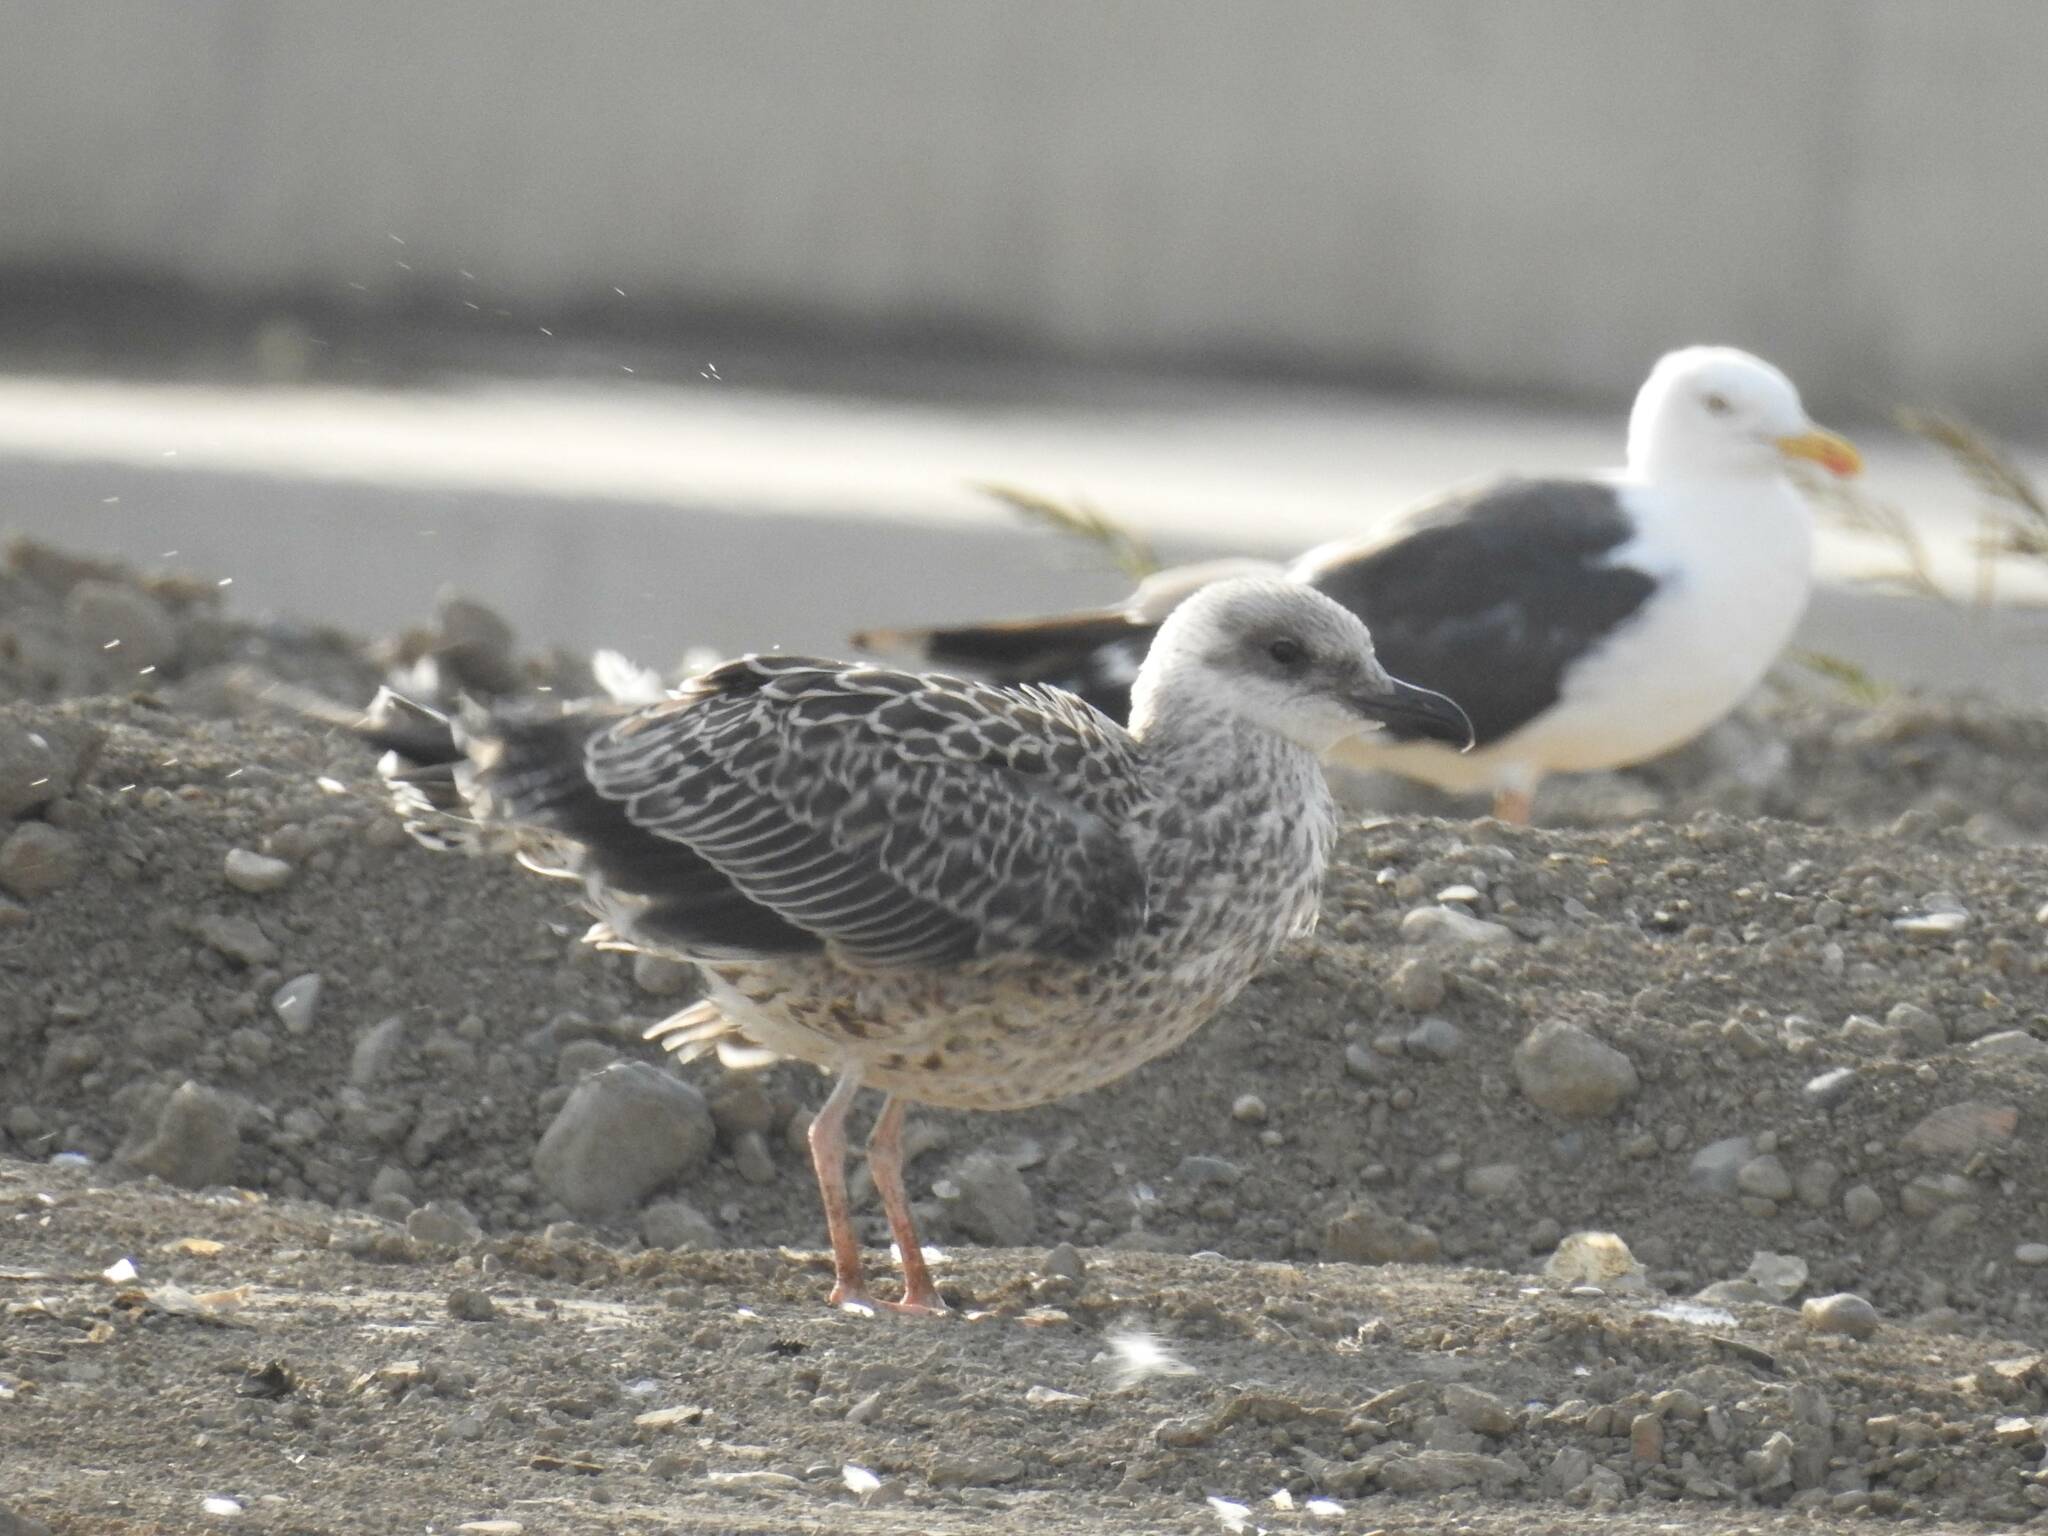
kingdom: Animalia
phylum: Chordata
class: Aves
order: Charadriiformes
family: Laridae
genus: Larus
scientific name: Larus fuscus
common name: Lesser black-backed gull
